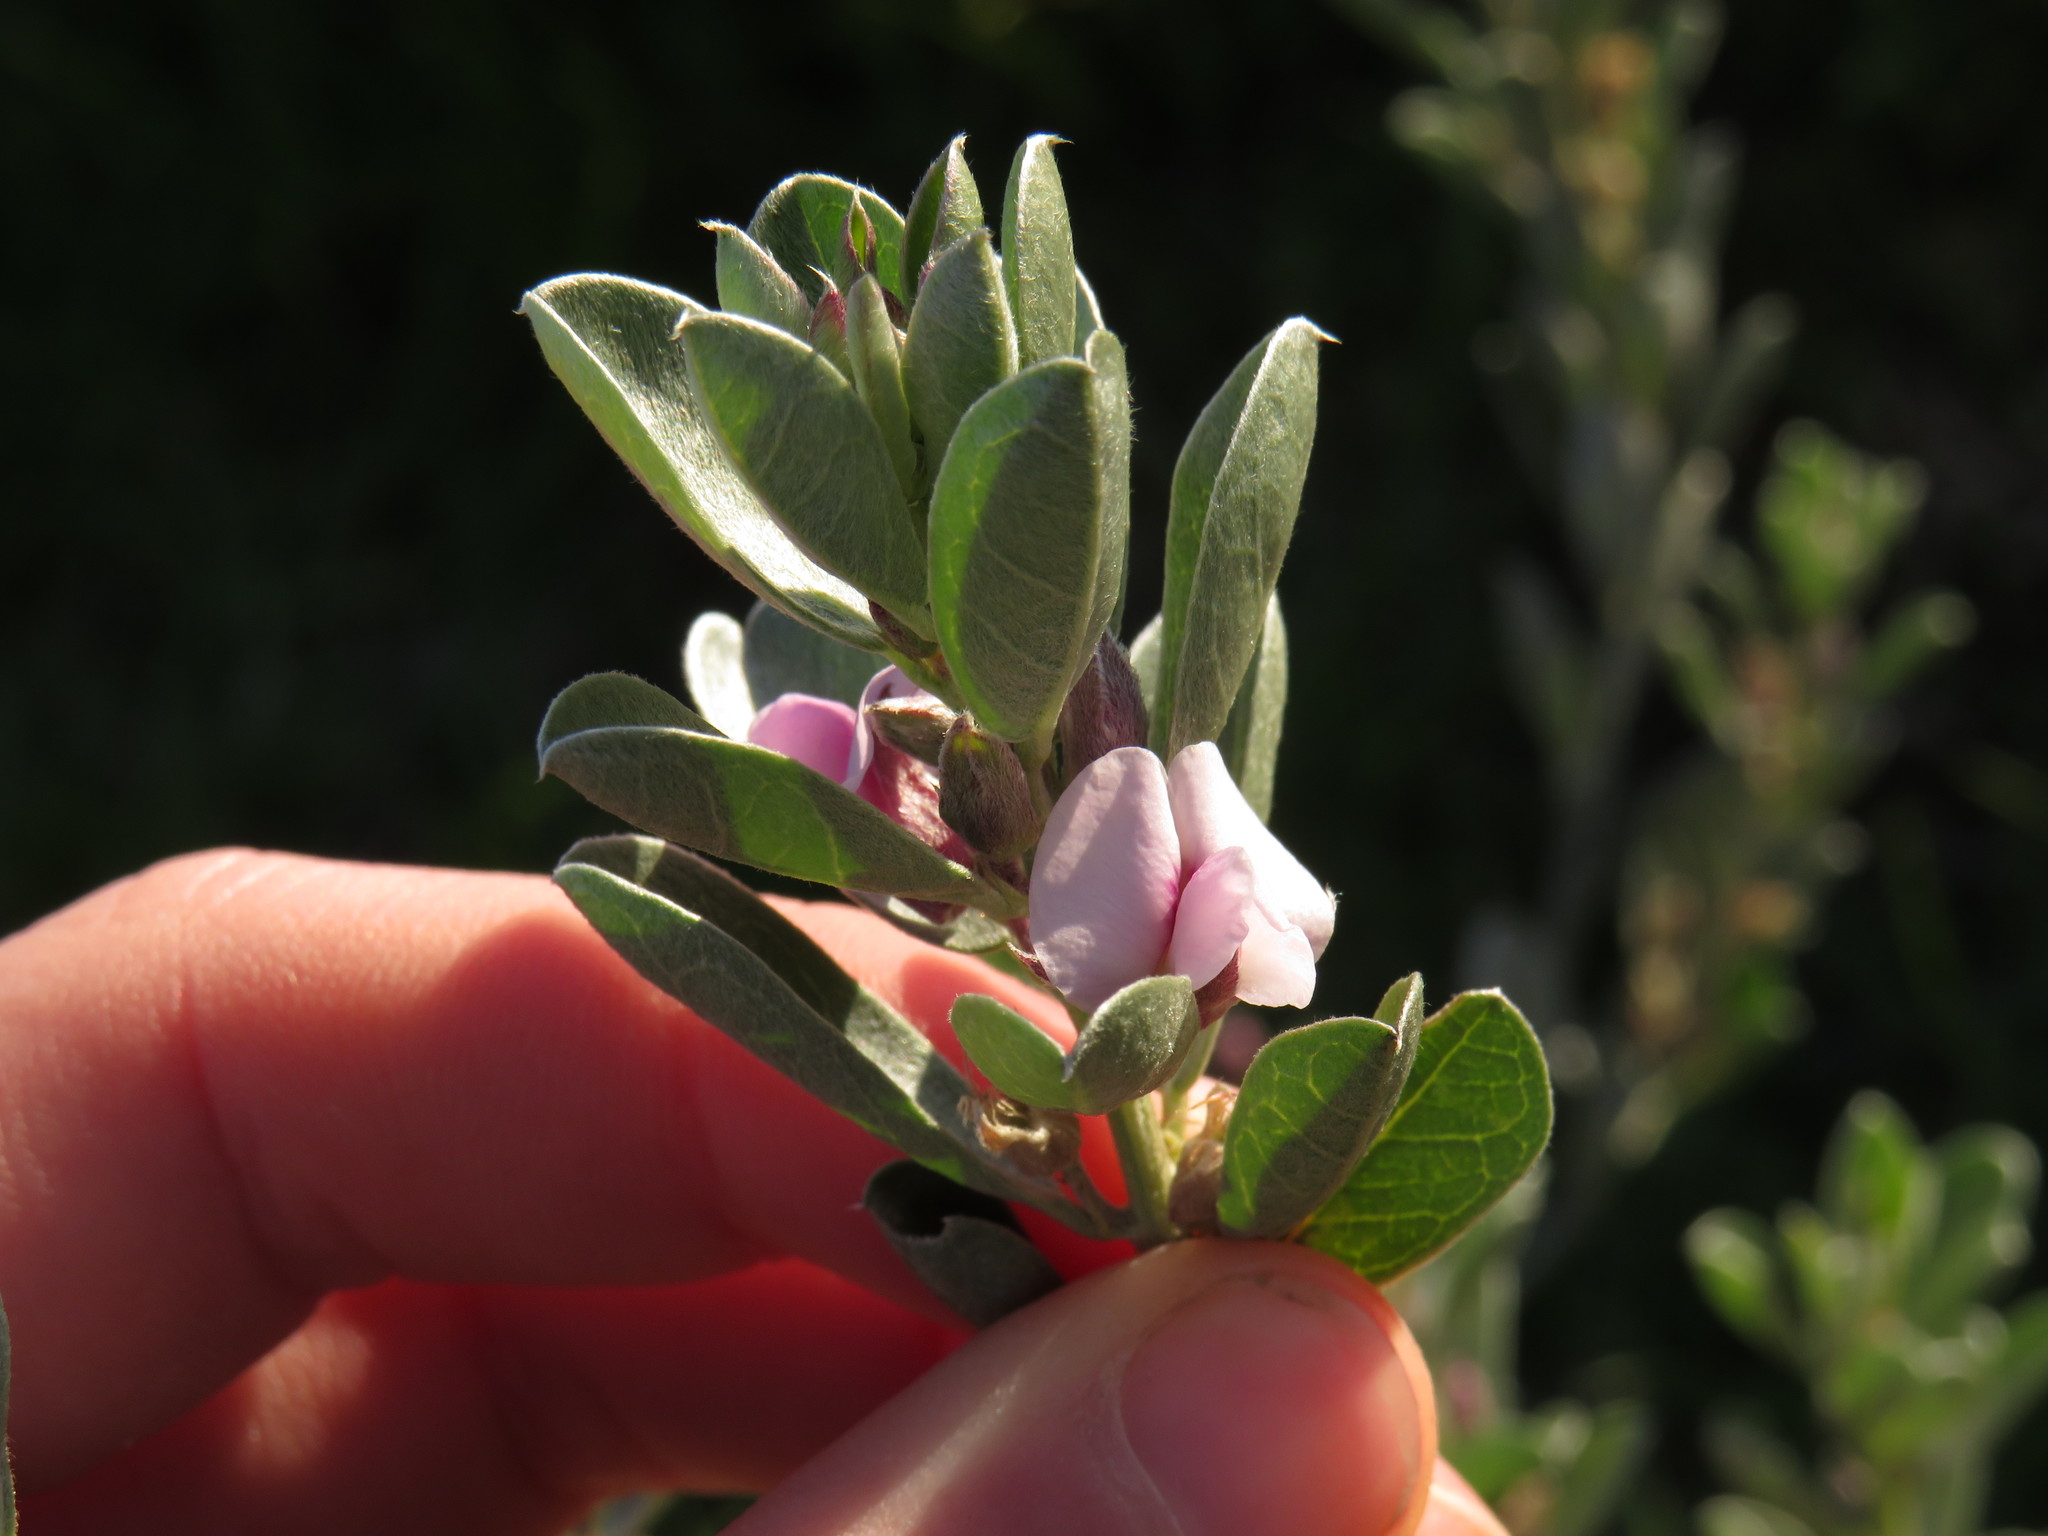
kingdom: Plantae
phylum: Tracheophyta
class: Magnoliopsida
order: Fabales
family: Fabaceae
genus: Podalyria
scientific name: Podalyria sericea
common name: Silver podalyria
